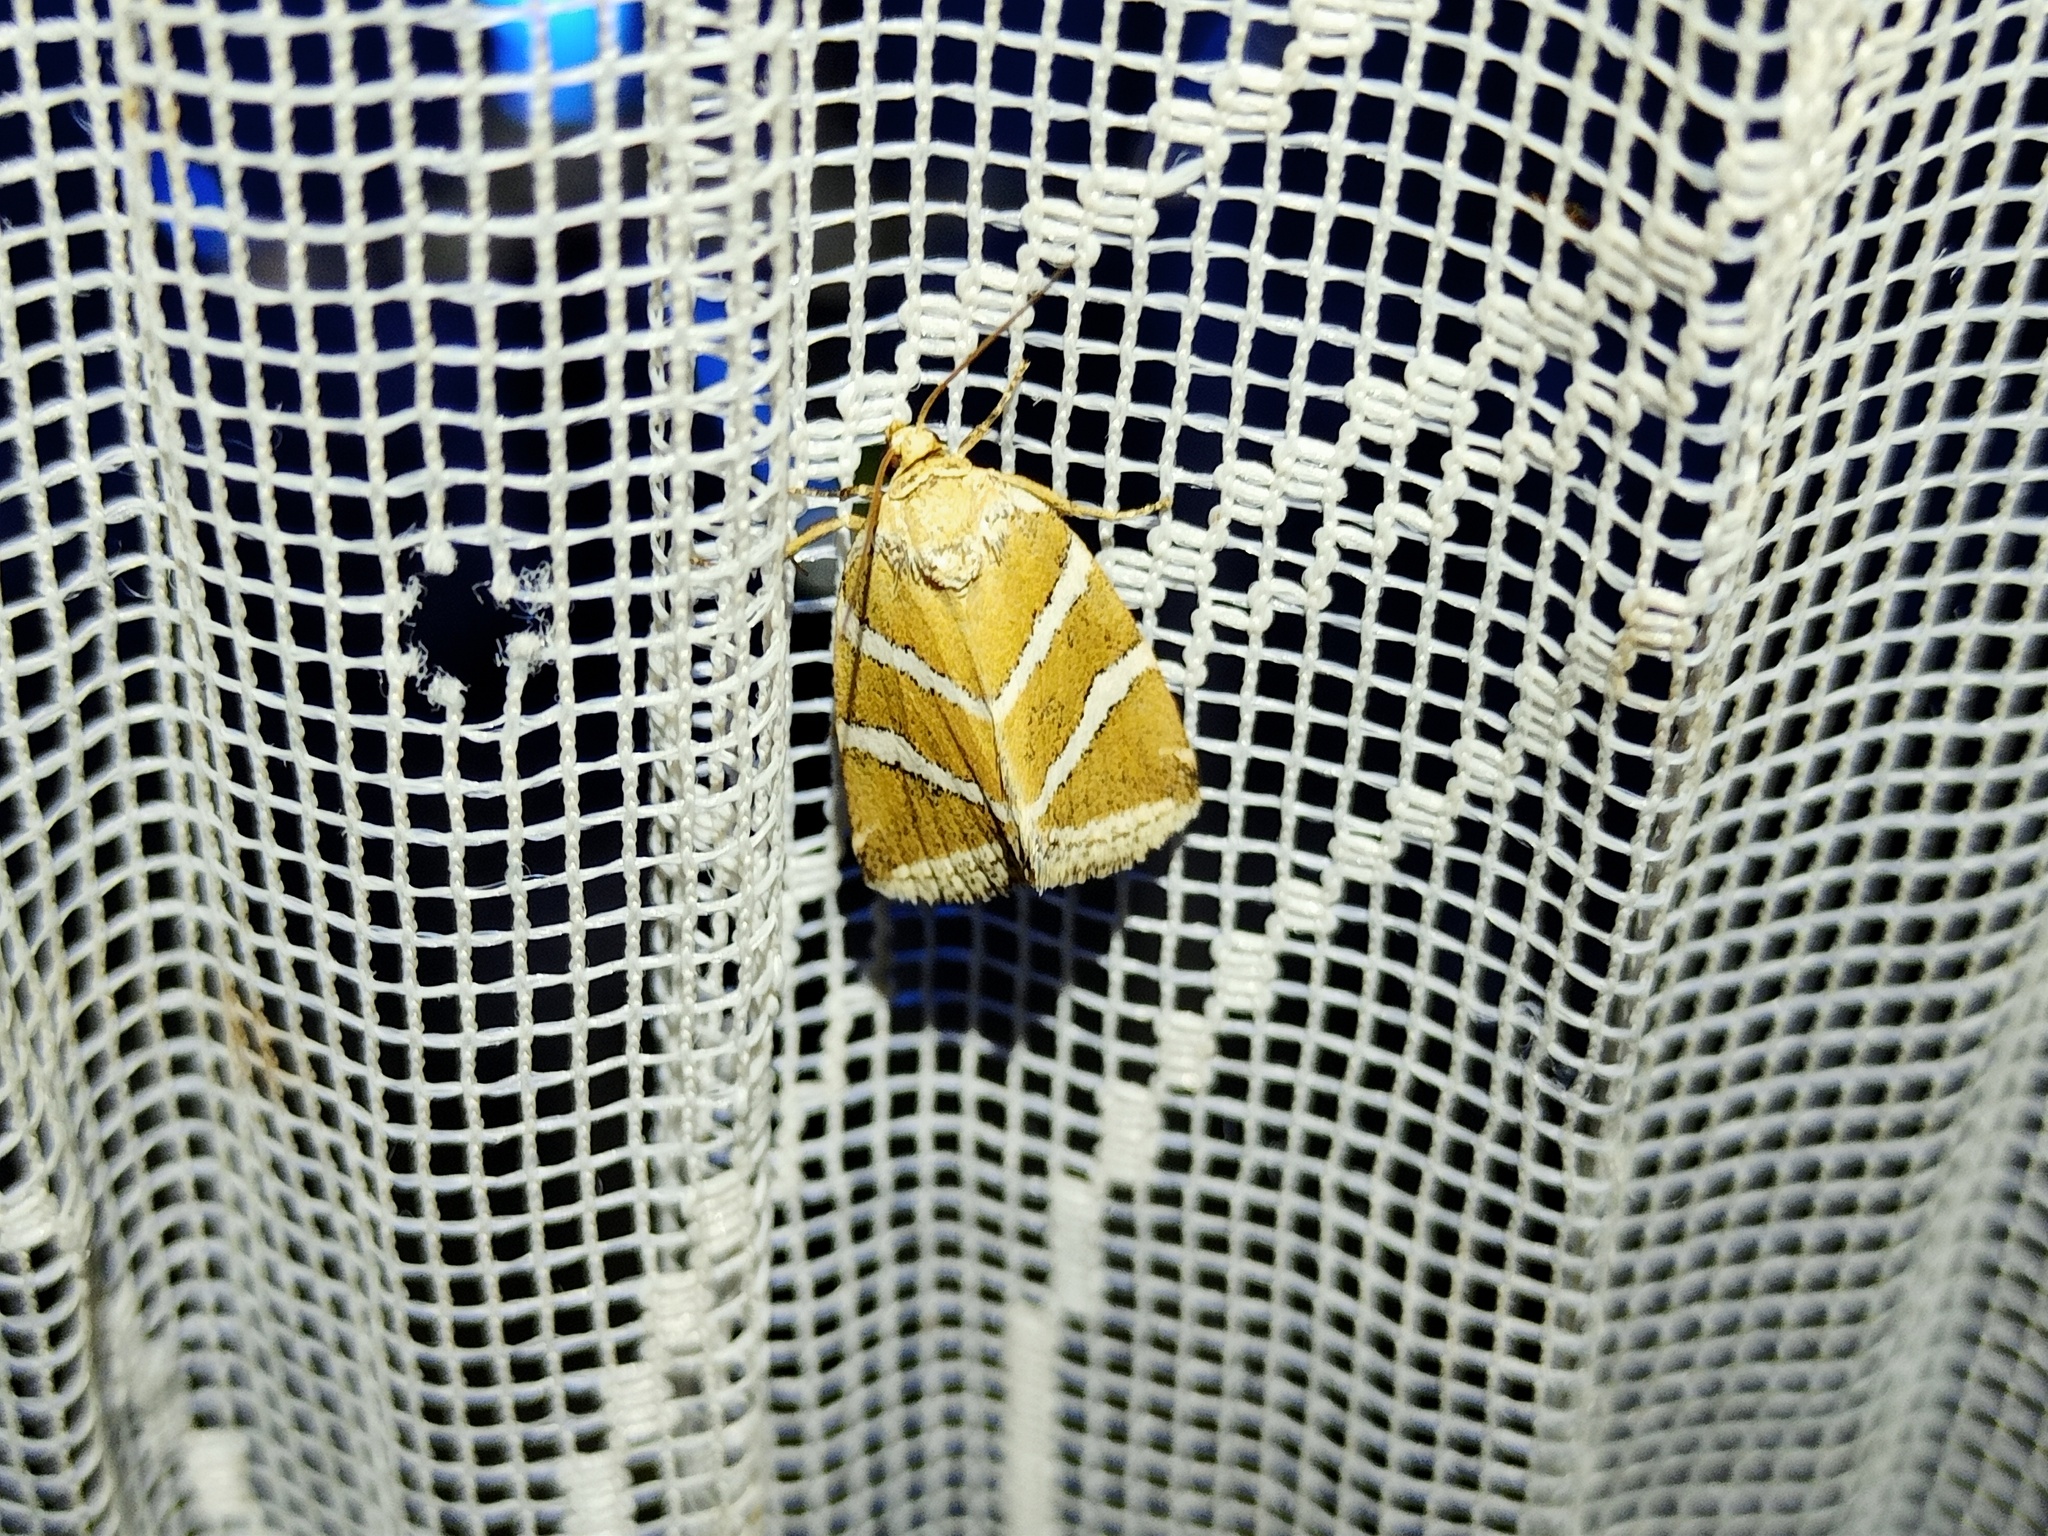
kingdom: Animalia
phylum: Arthropoda
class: Insecta
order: Lepidoptera
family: Noctuidae
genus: Deltote
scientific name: Deltote bankiana
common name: Silver barred
